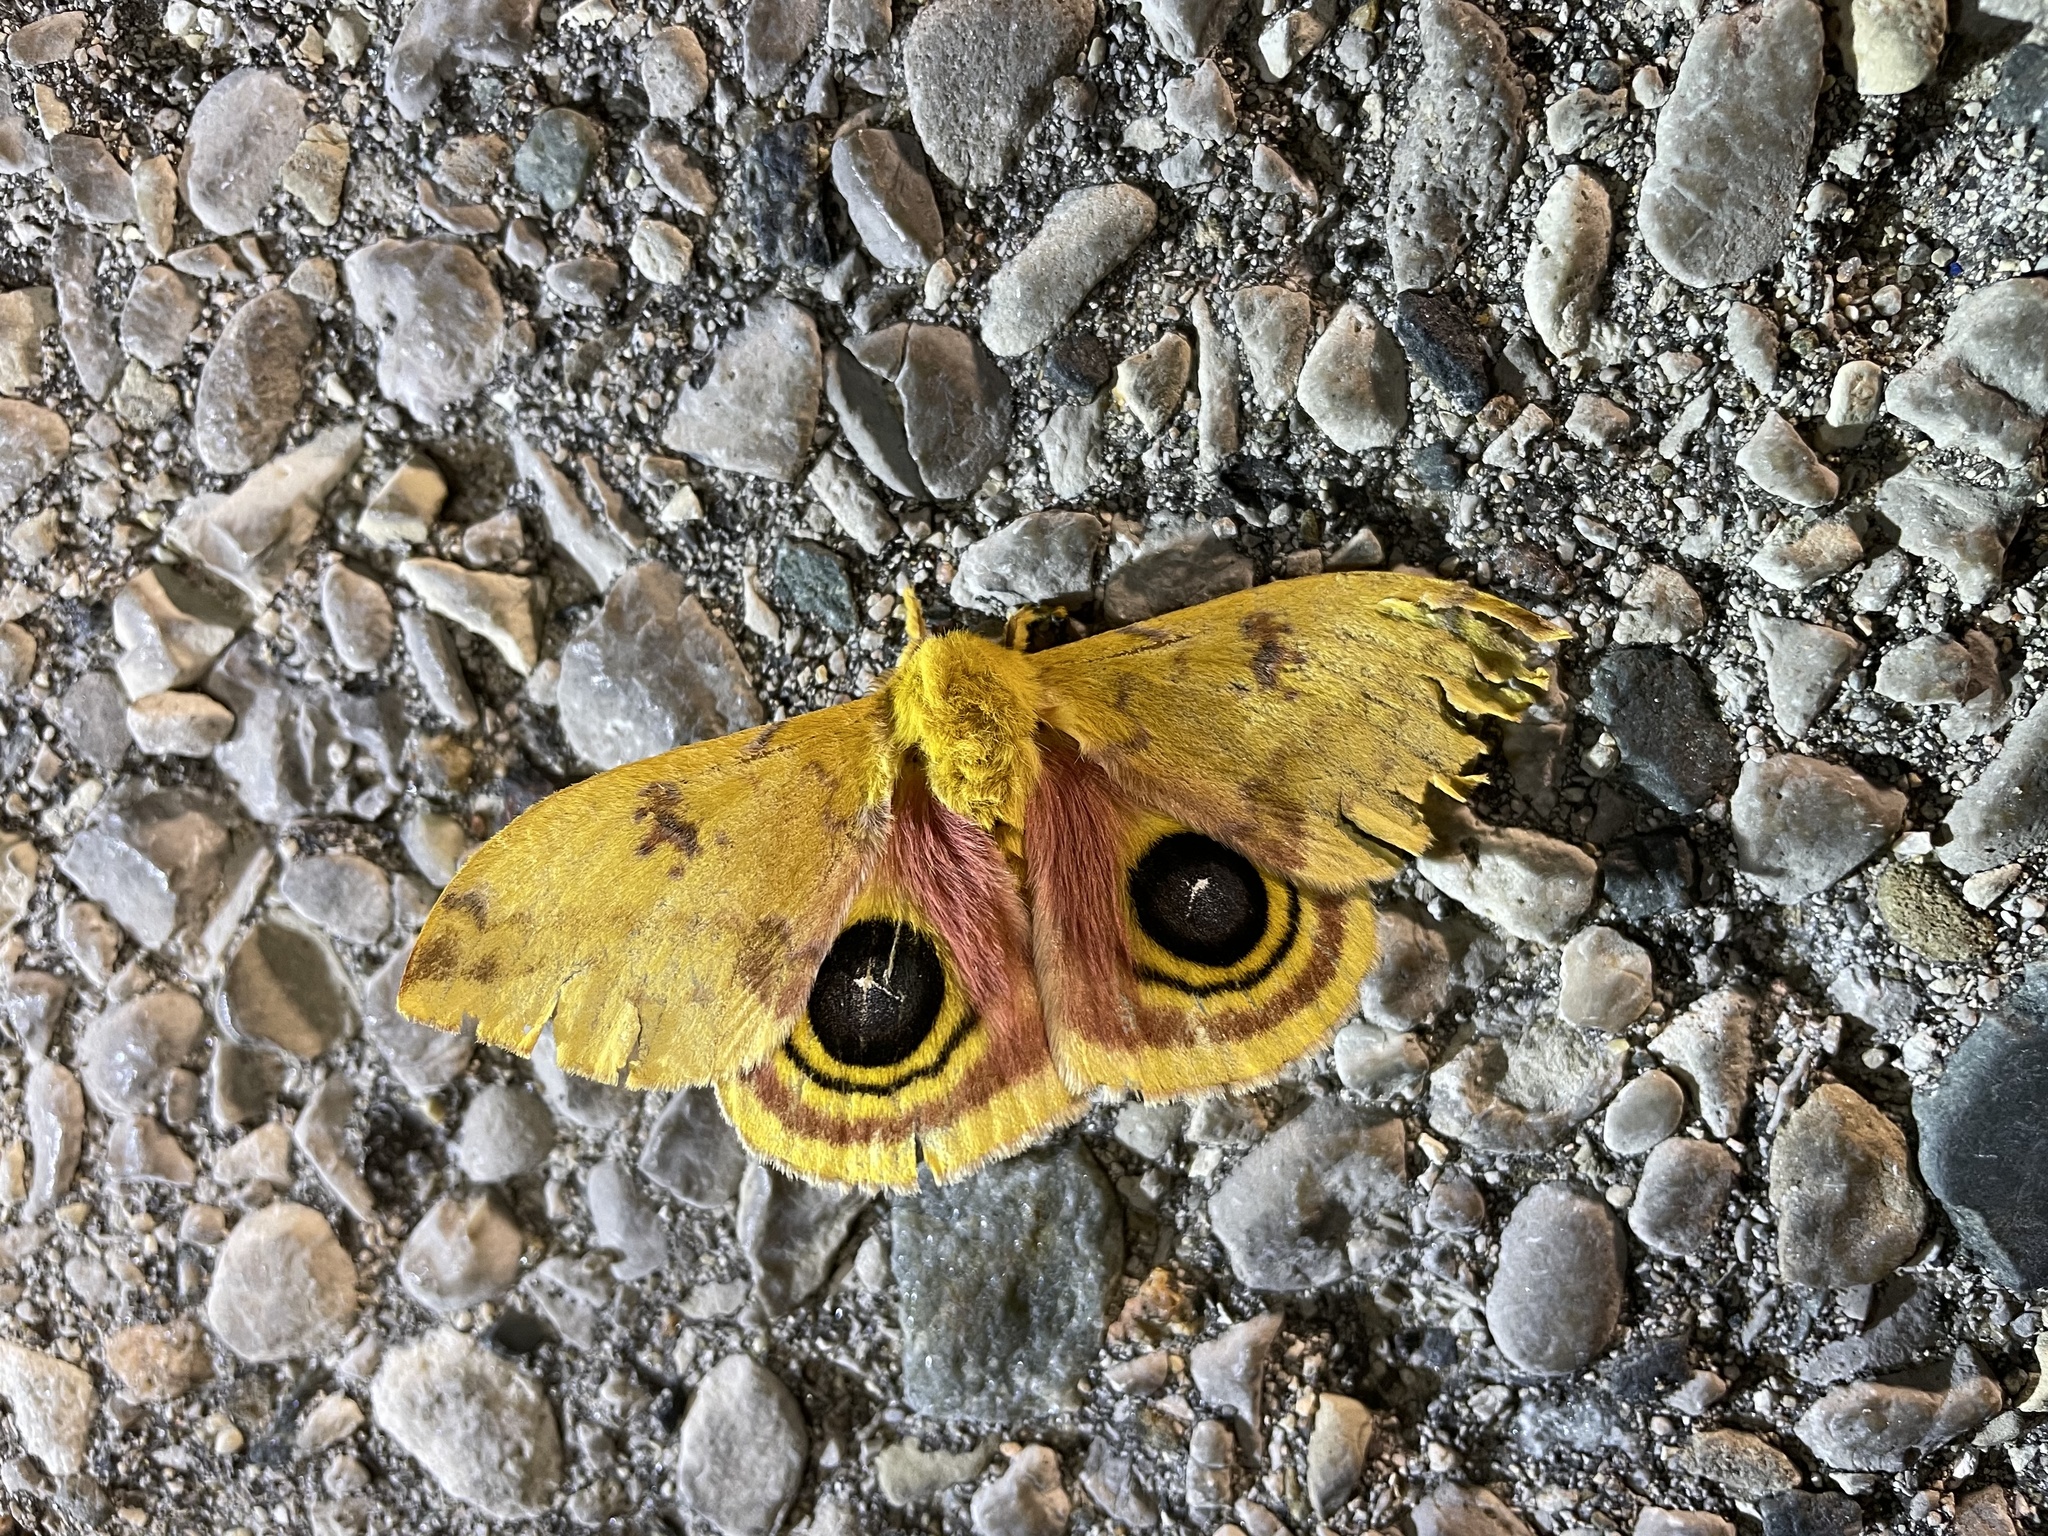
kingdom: Animalia
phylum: Arthropoda
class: Insecta
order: Lepidoptera
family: Saturniidae
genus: Automeris
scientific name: Automeris io
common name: Io moth
